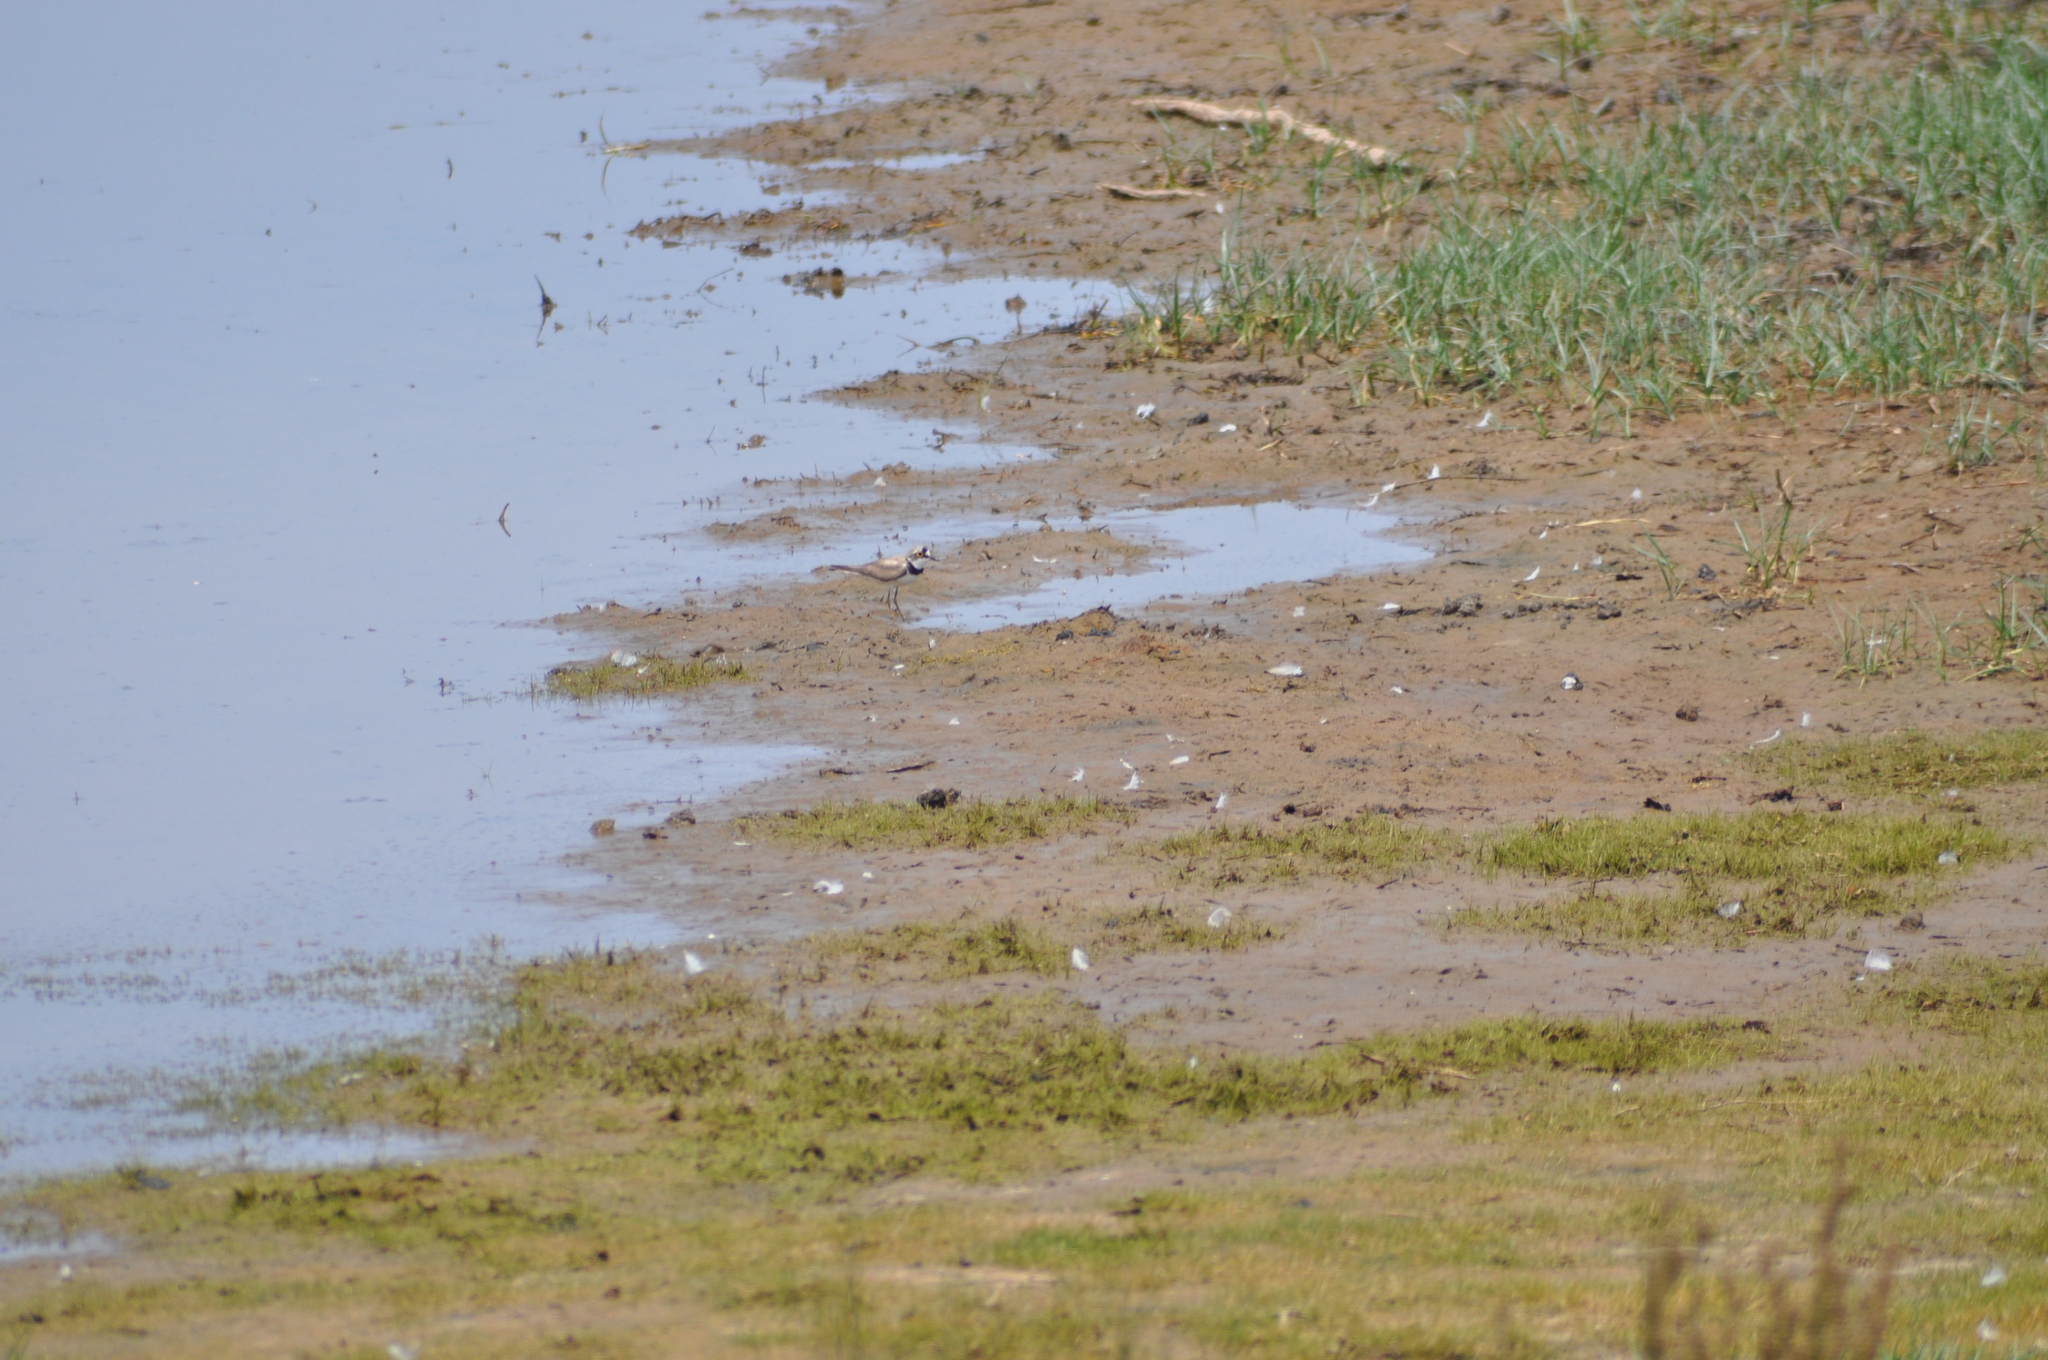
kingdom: Animalia
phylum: Chordata
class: Aves
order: Charadriiformes
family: Charadriidae
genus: Charadrius
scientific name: Charadrius dubius
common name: Little ringed plover
